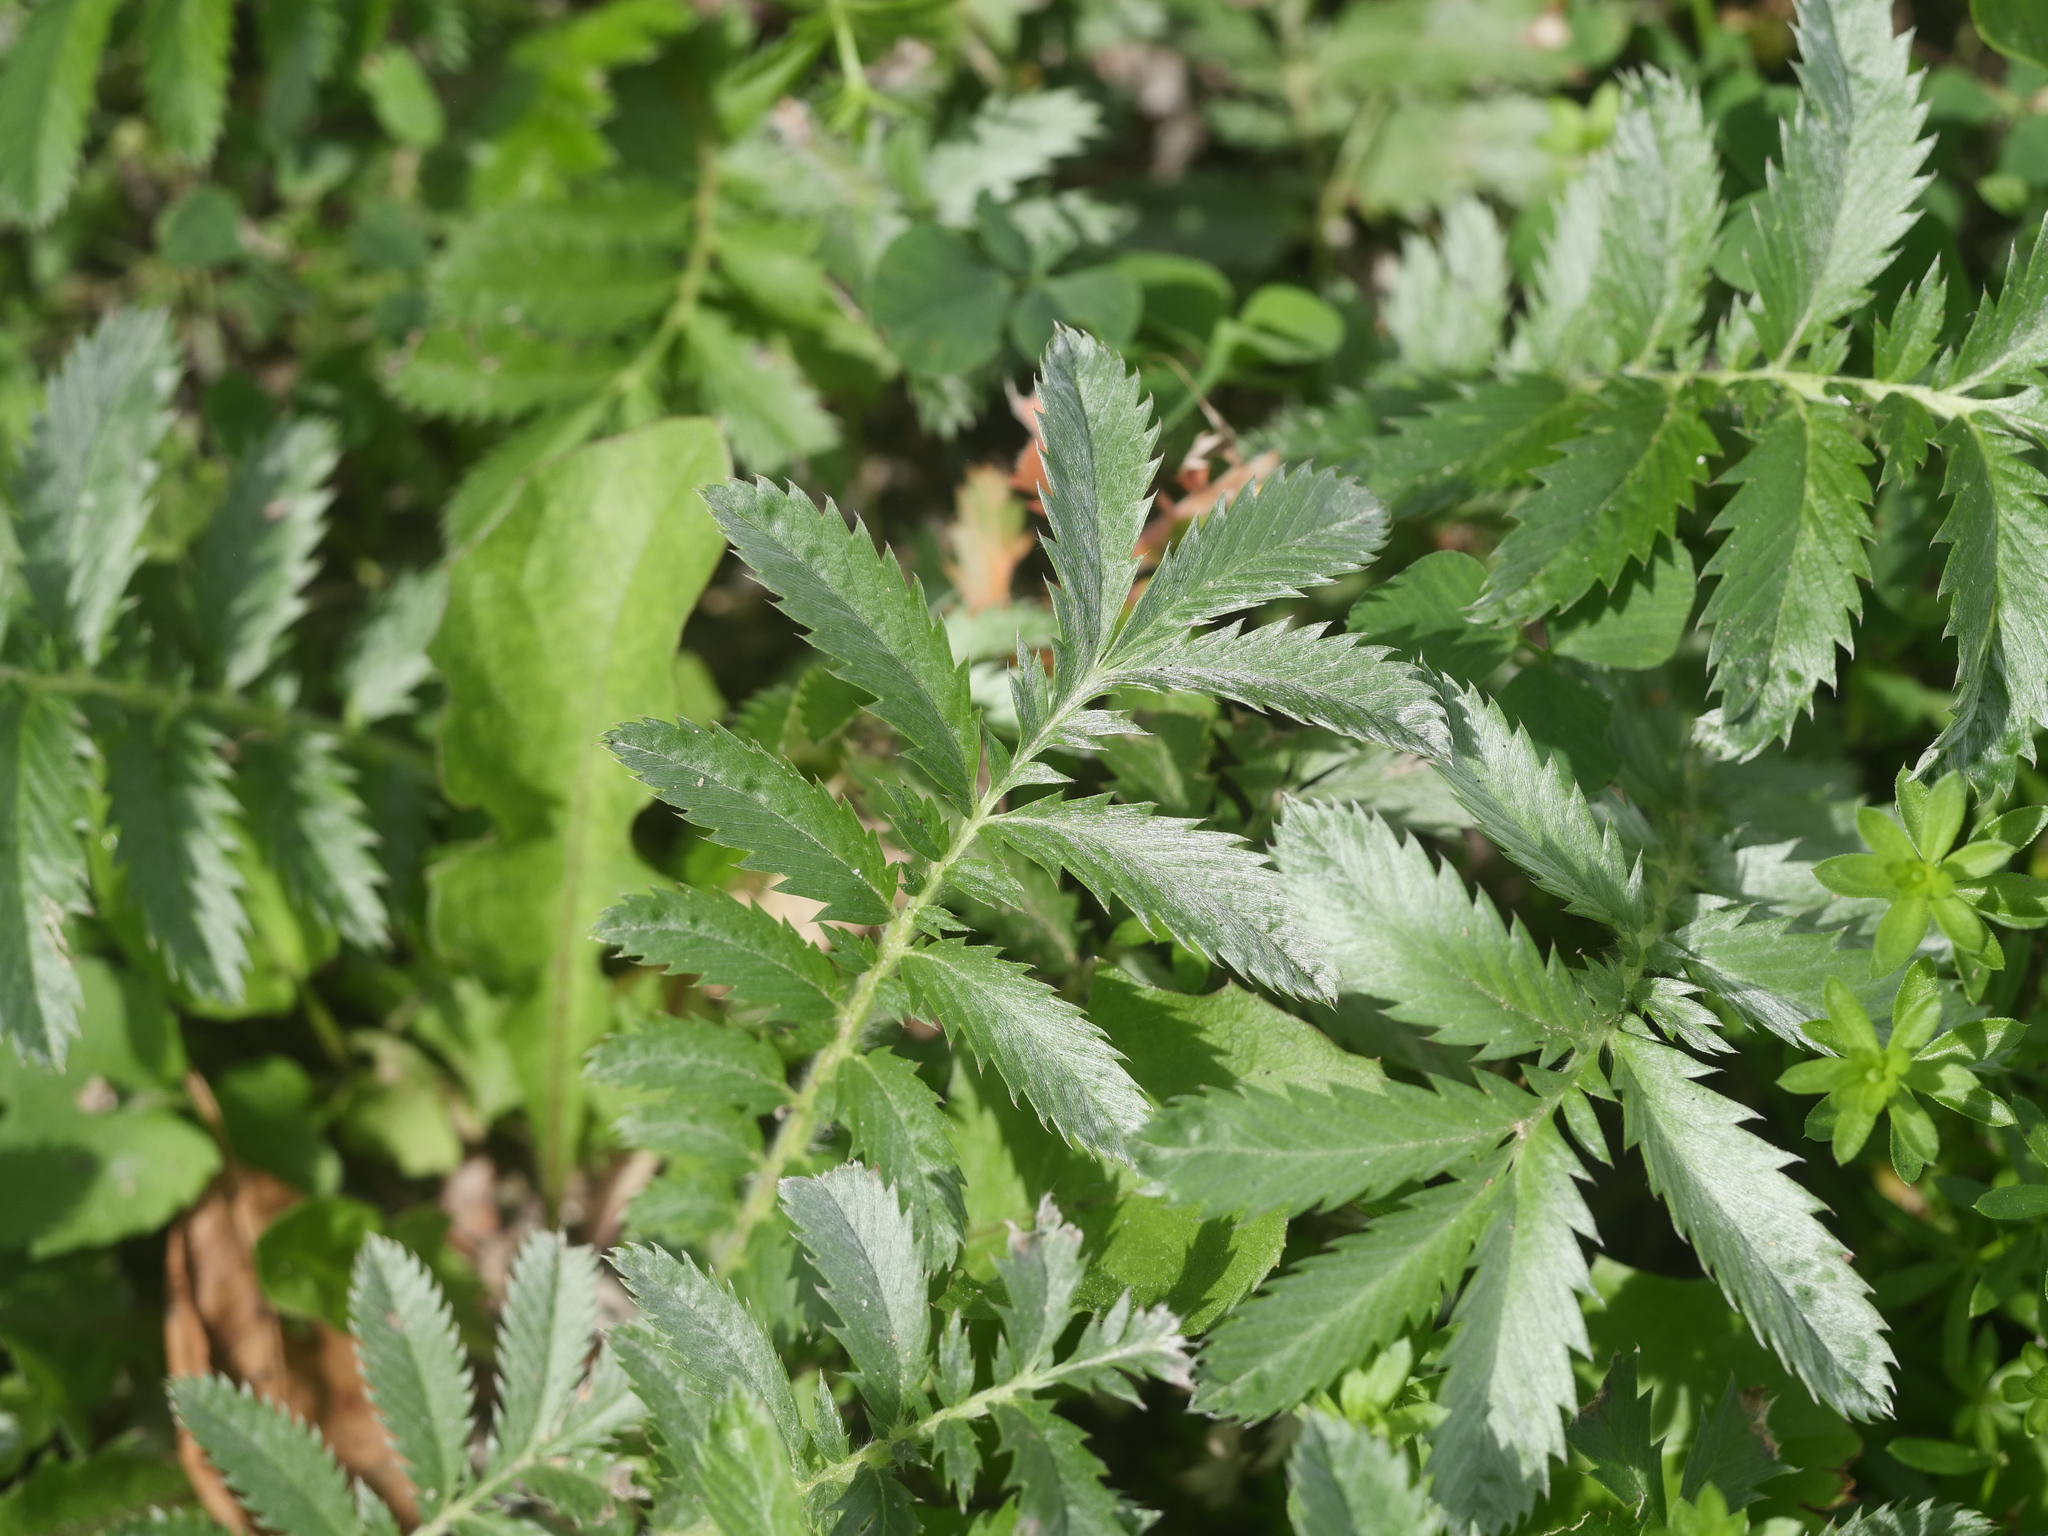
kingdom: Plantae
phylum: Tracheophyta
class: Magnoliopsida
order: Rosales
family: Rosaceae
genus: Argentina
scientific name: Argentina anserina
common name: Common silverweed
